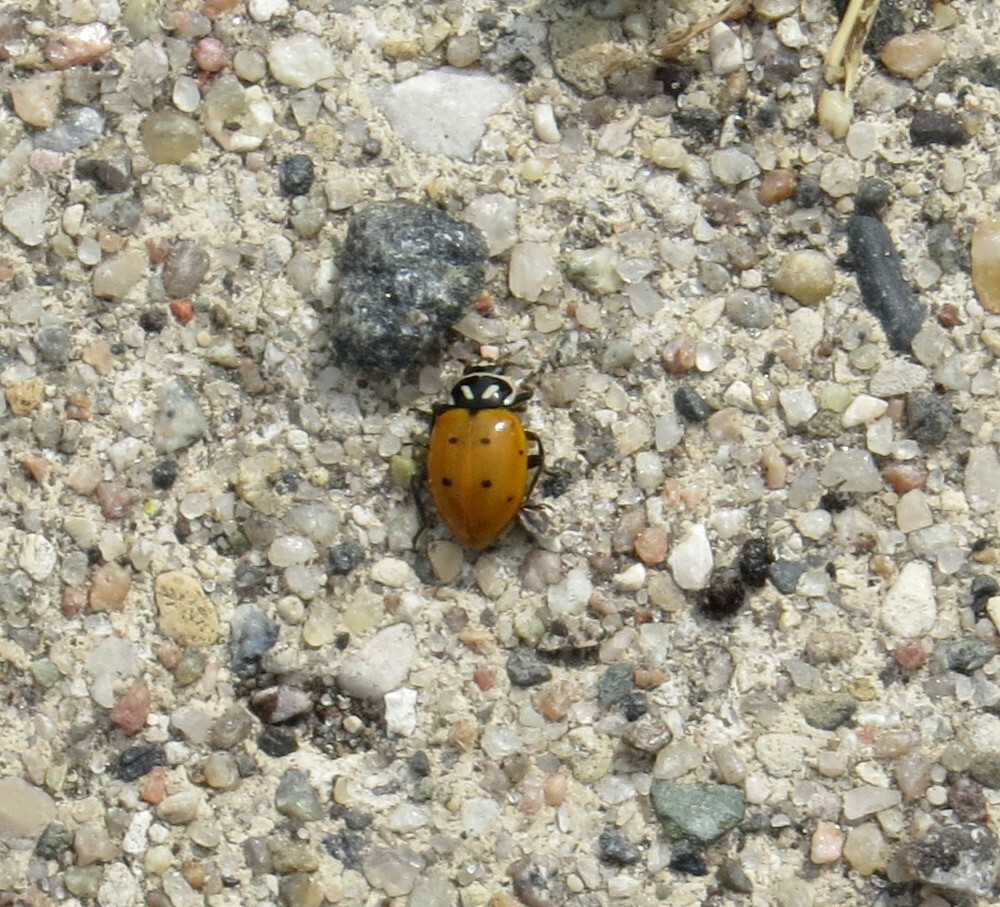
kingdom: Animalia
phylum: Arthropoda
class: Insecta
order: Coleoptera
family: Coccinellidae
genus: Hippodamia
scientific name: Hippodamia convergens
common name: Convergent lady beetle
